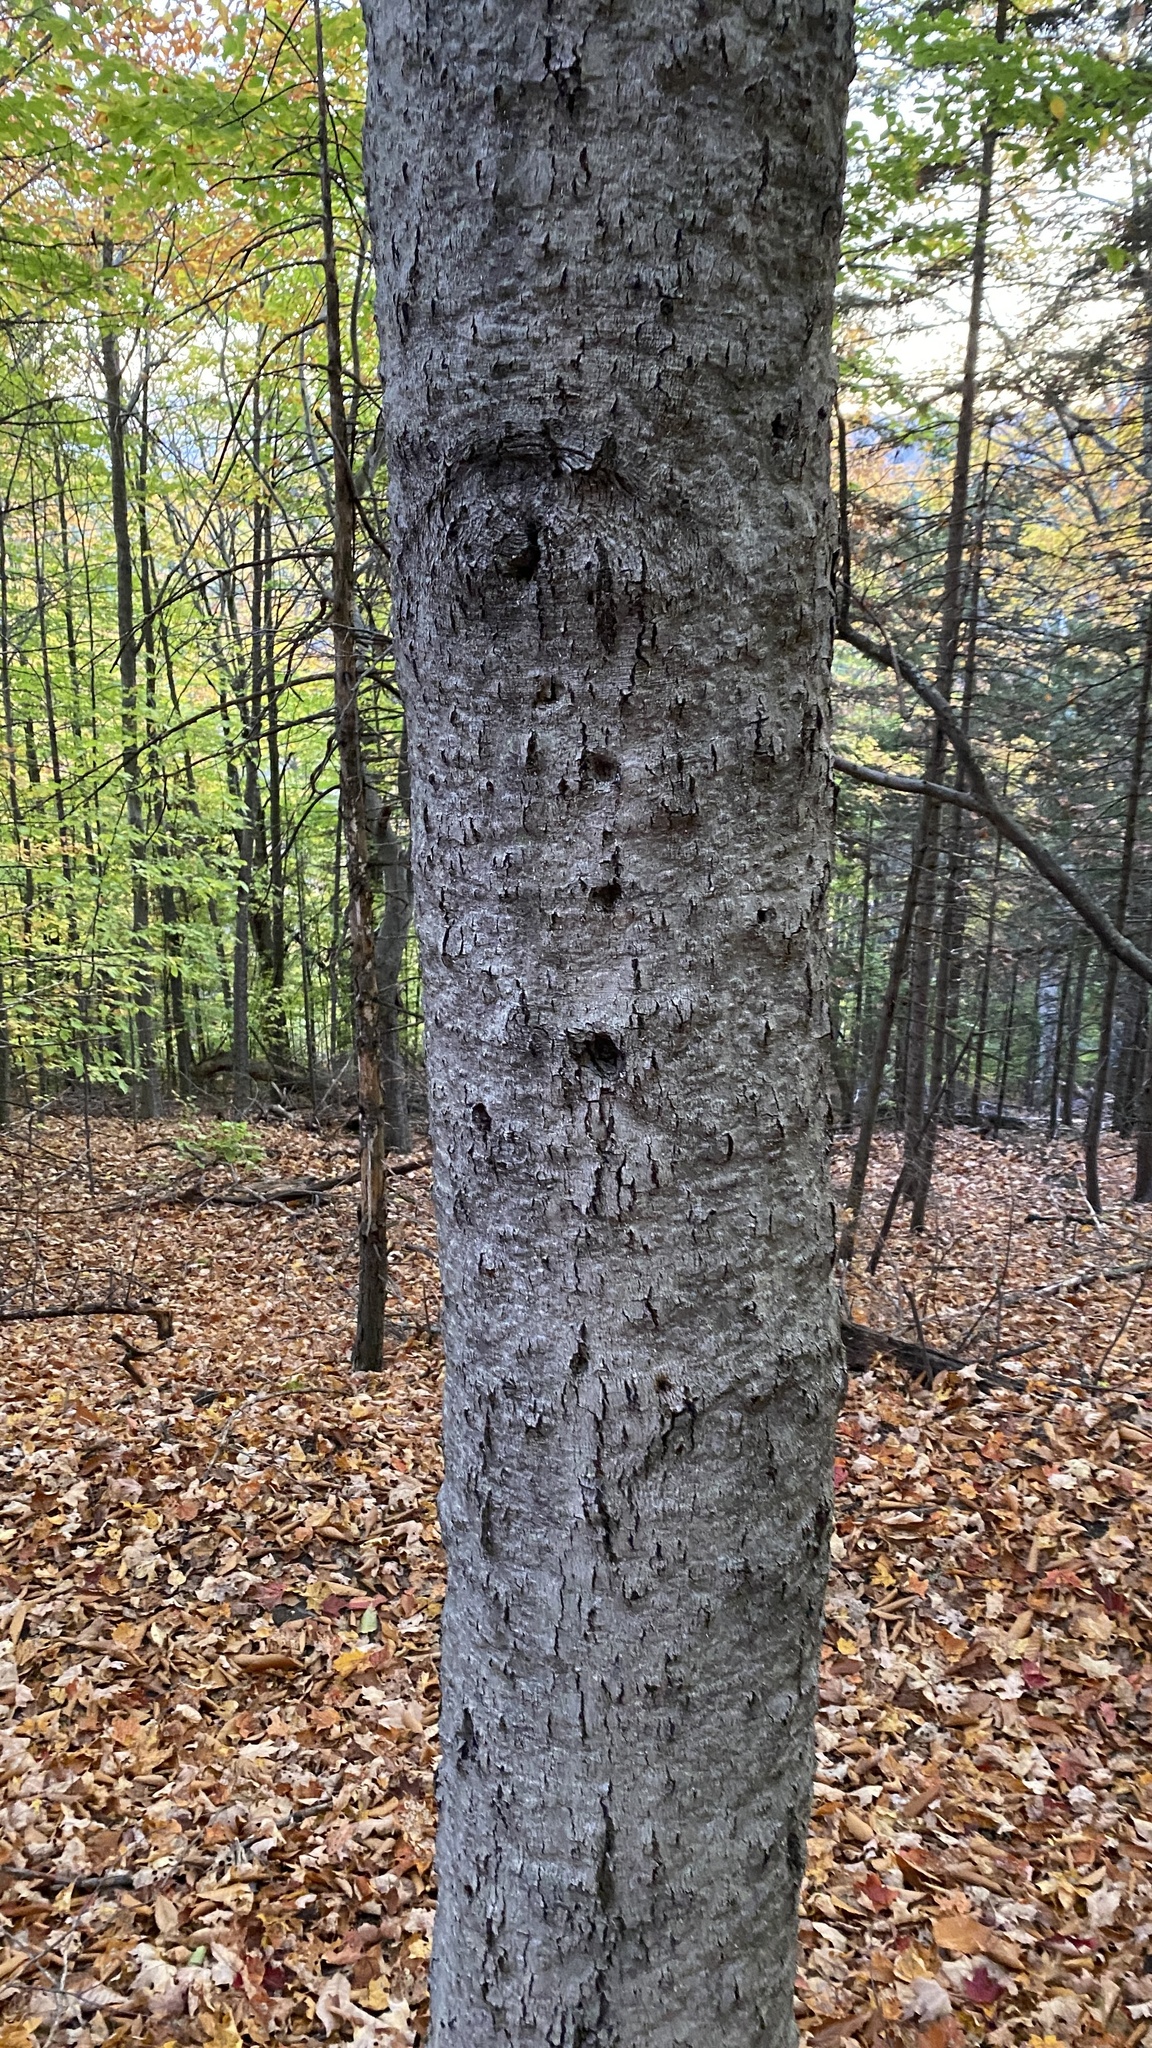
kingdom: Animalia
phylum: Arthropoda
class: Insecta
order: Hemiptera
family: Eriococcidae
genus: Cryptococcus
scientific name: Cryptococcus fagisuga
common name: Beech scale
